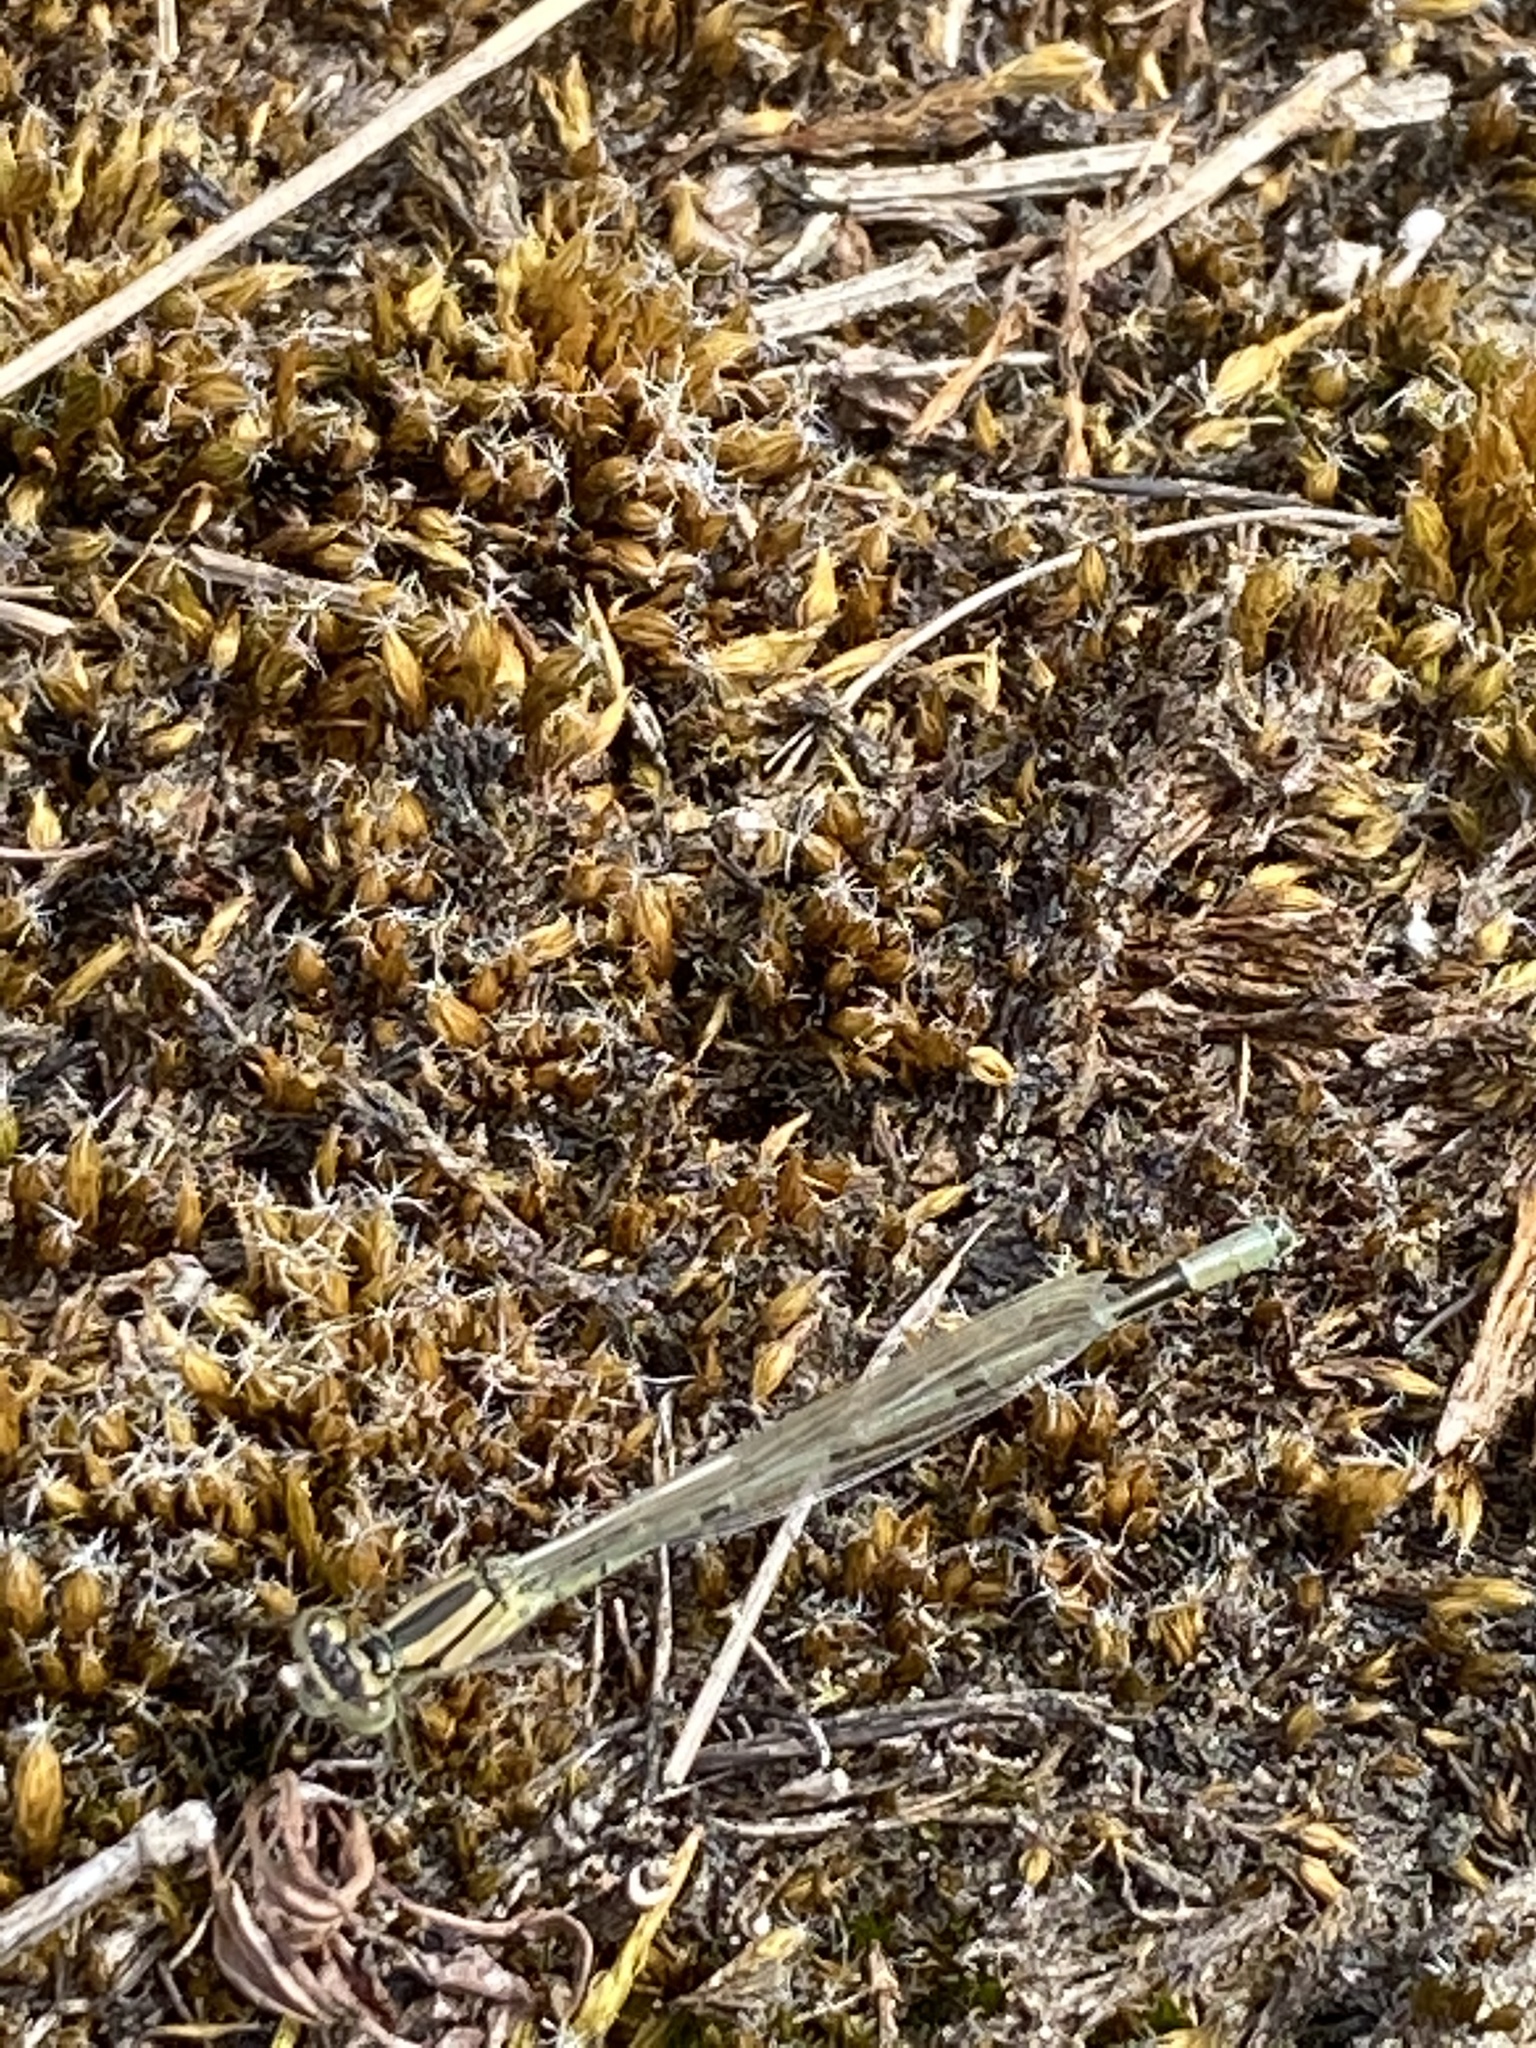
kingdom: Animalia
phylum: Arthropoda
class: Insecta
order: Odonata
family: Coenagrionidae
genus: Enallagma
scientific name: Enallagma cyathigerum
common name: Common blue damselfly
